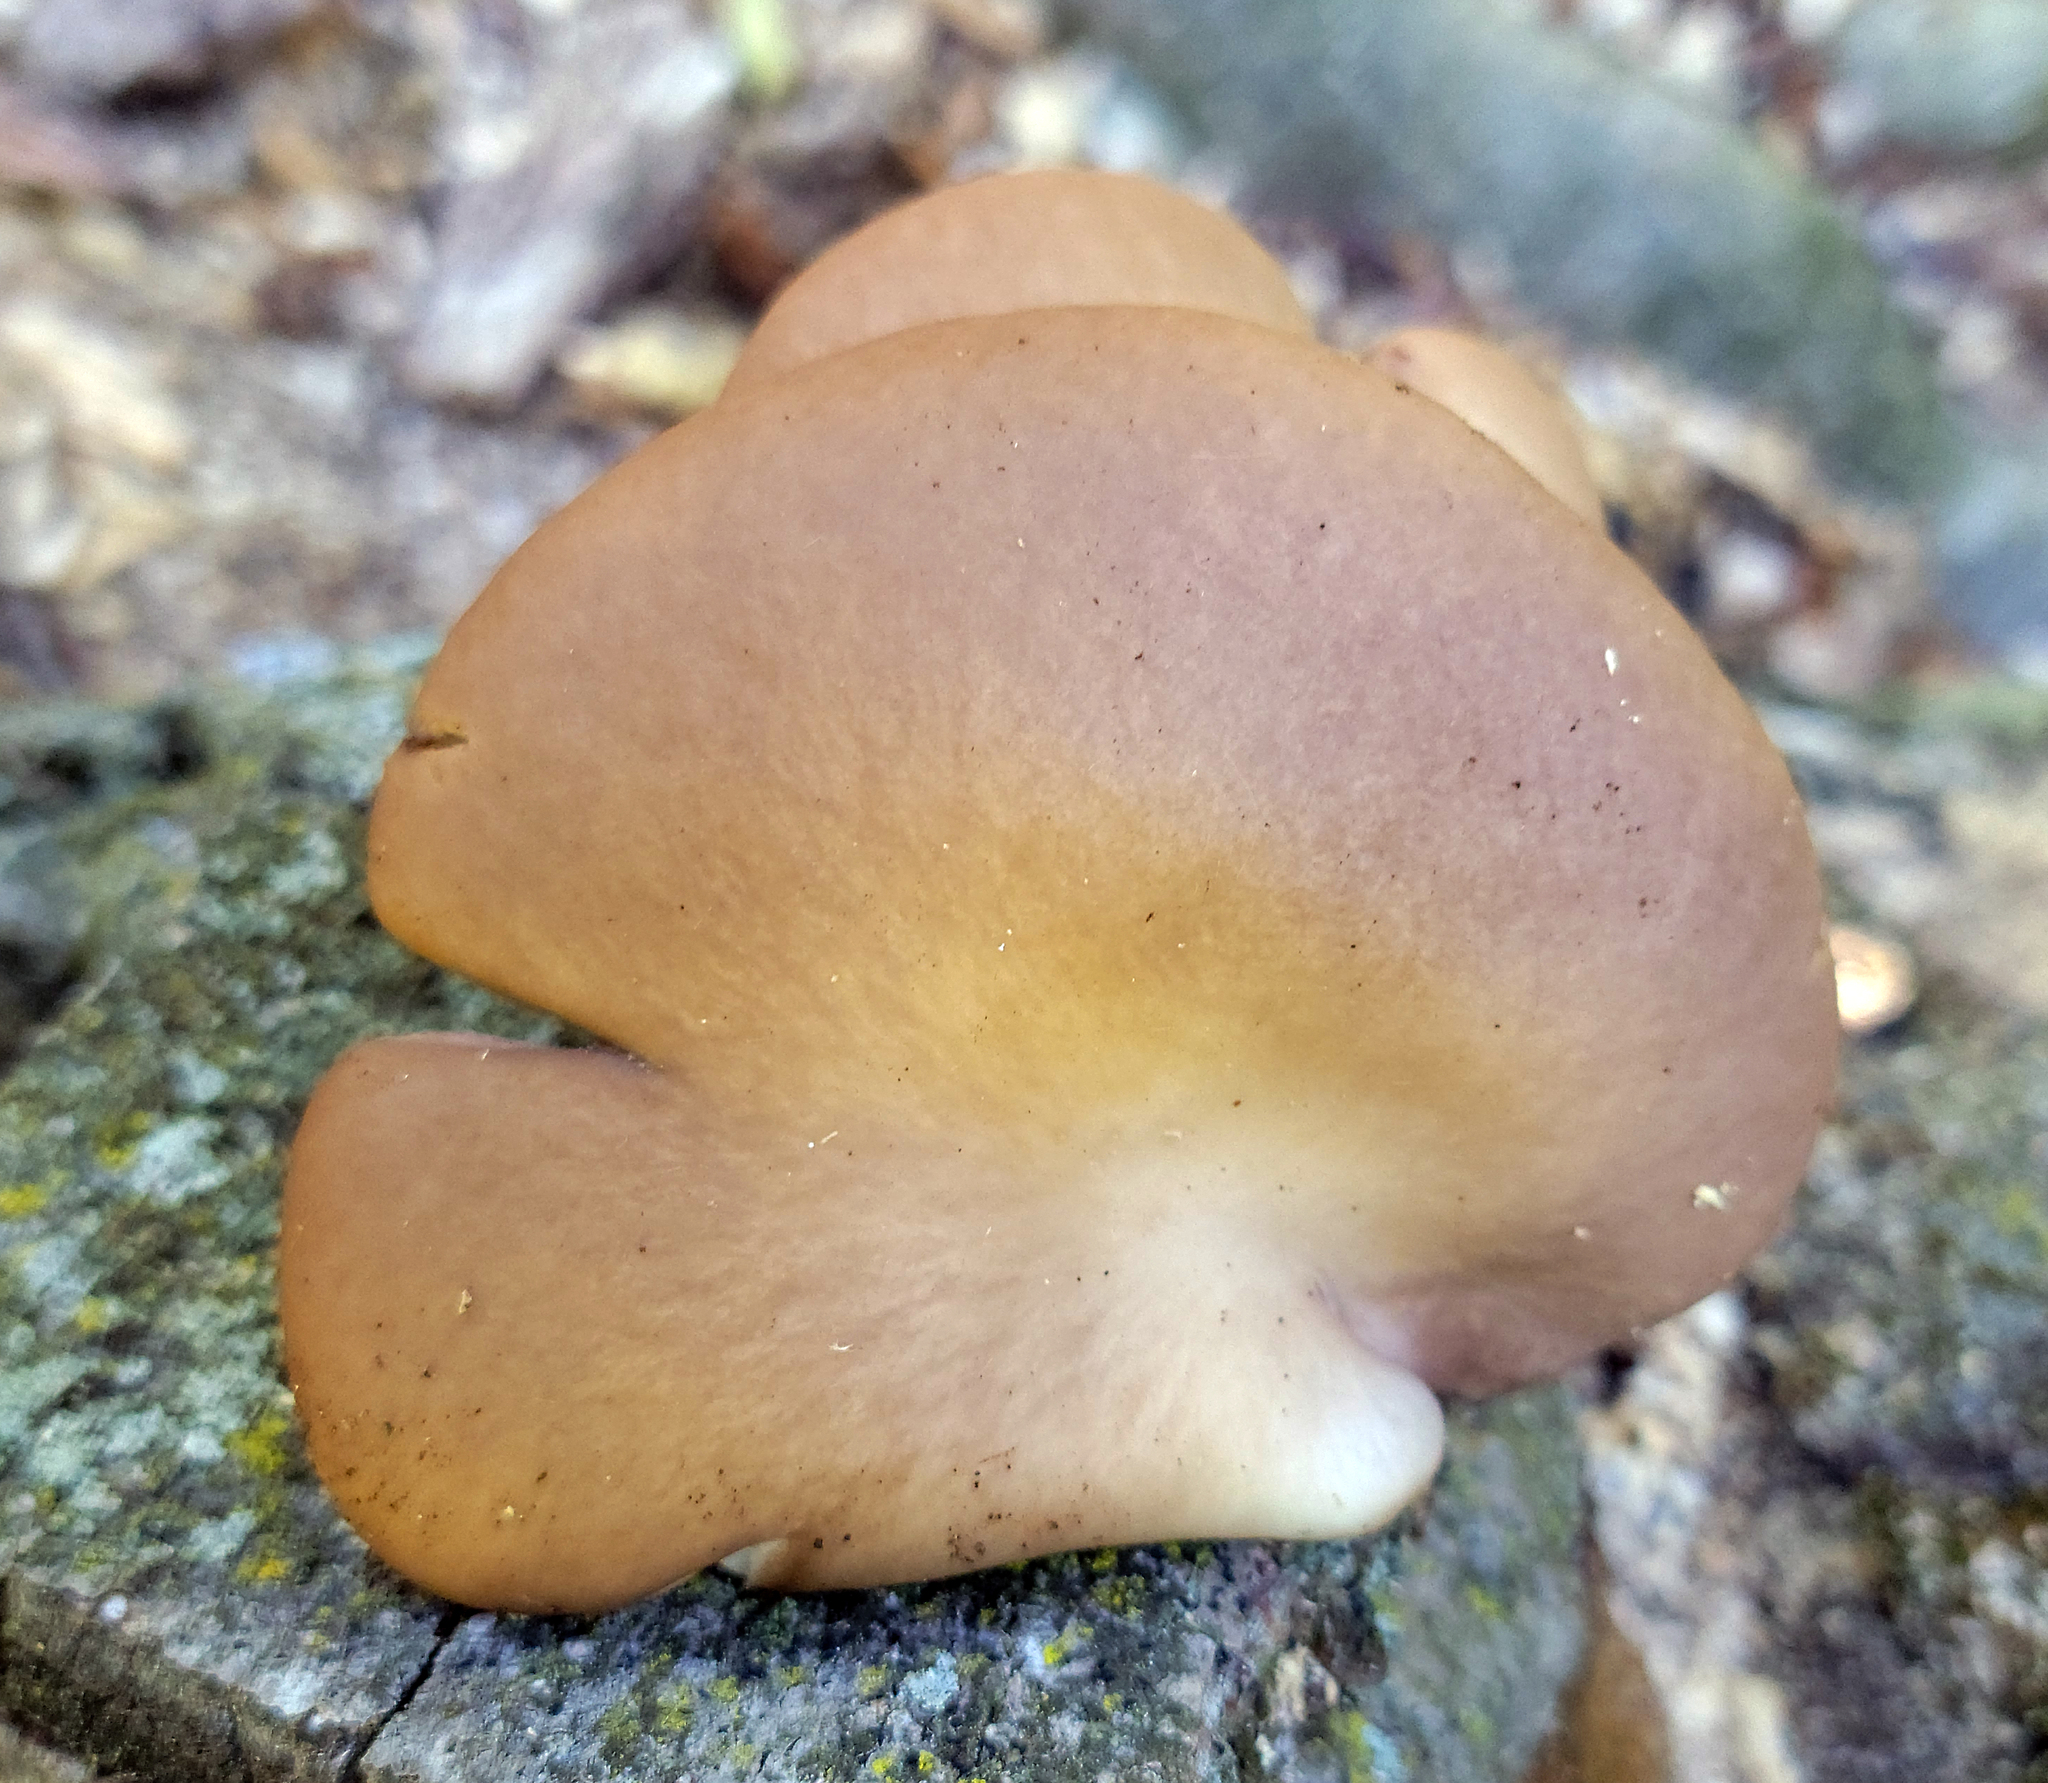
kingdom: Fungi
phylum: Basidiomycota
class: Agaricomycetes
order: Agaricales
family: Sarcomyxaceae
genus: Sarcomyxa
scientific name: Sarcomyxa serotina
